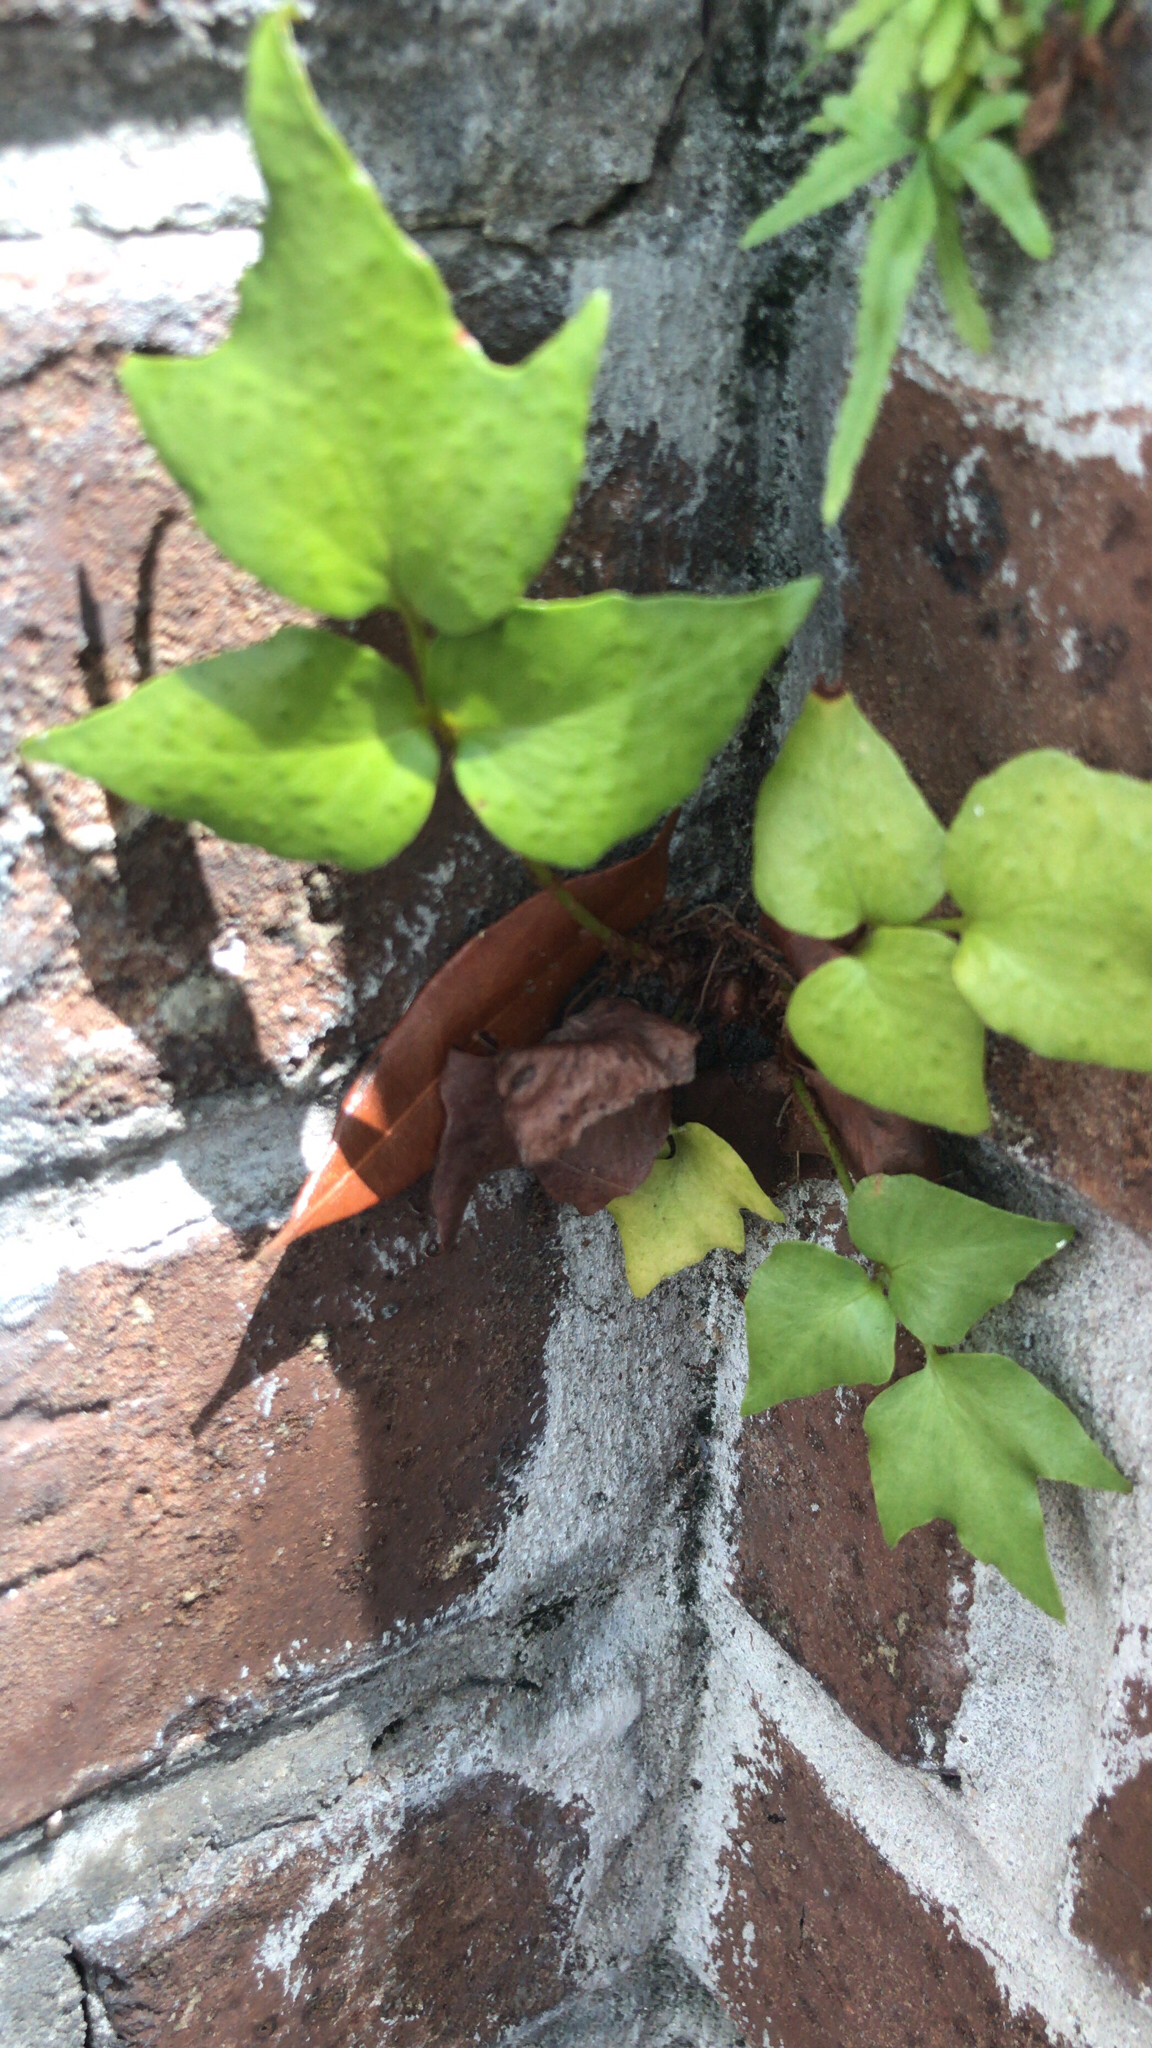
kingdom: Plantae
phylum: Tracheophyta
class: Polypodiopsida
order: Polypodiales
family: Dryopteridaceae
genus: Cyrtomium
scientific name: Cyrtomium falcatum
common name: House holly-fern
